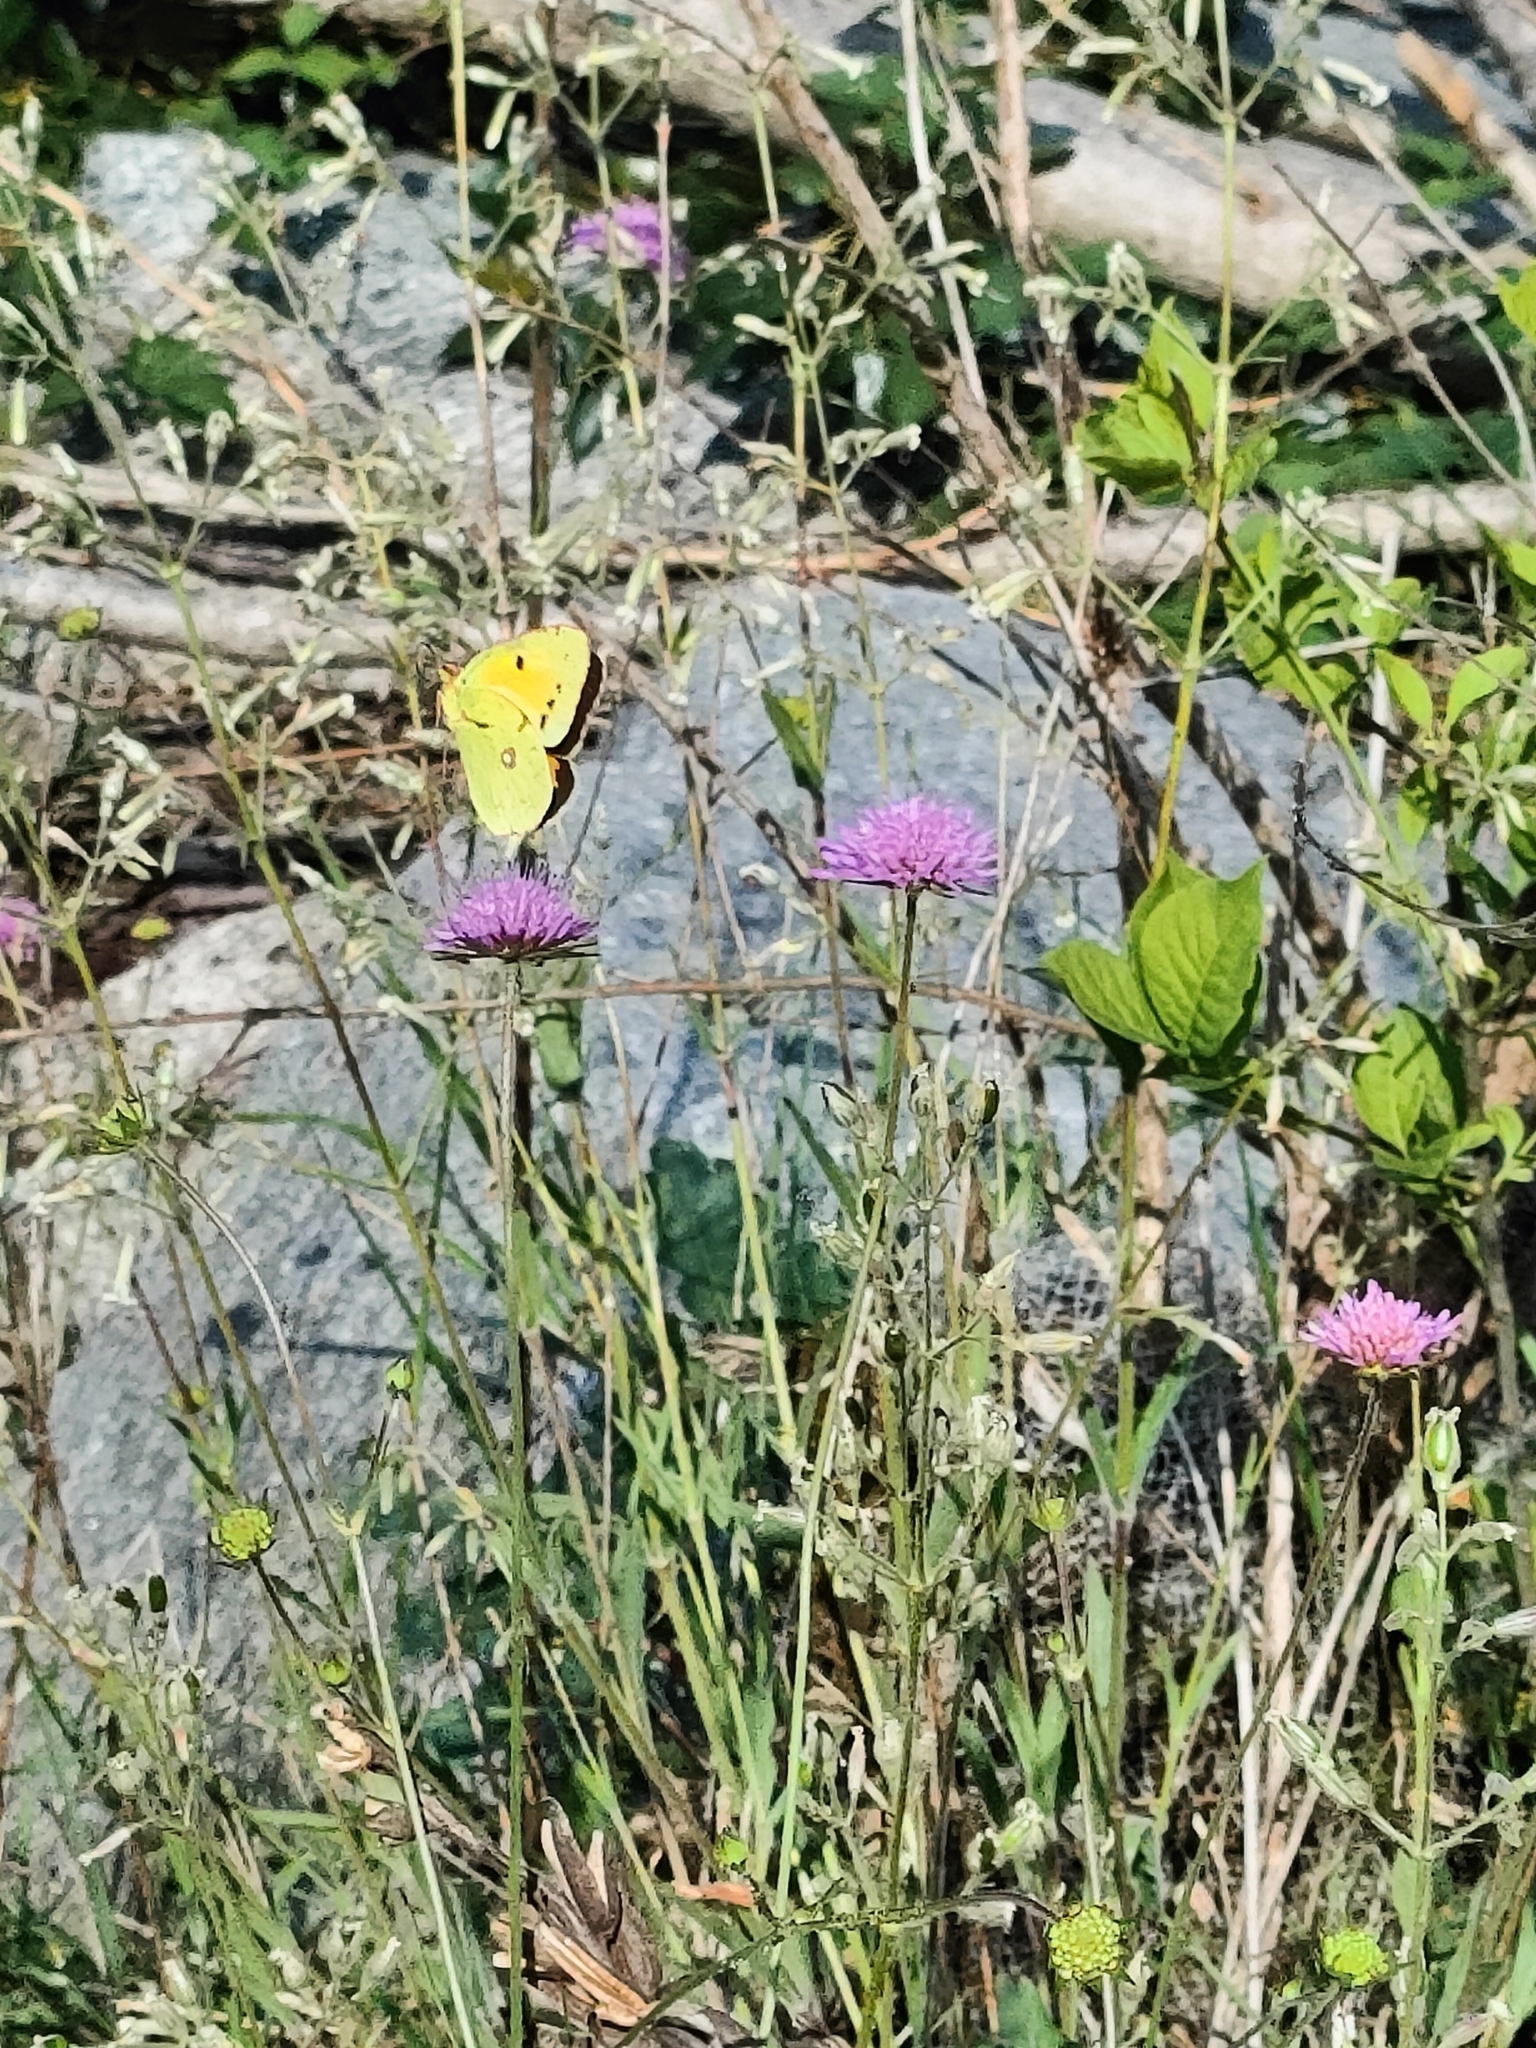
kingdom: Animalia
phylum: Arthropoda
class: Insecta
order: Lepidoptera
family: Pieridae
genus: Colias
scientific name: Colias croceus
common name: Clouded yellow
